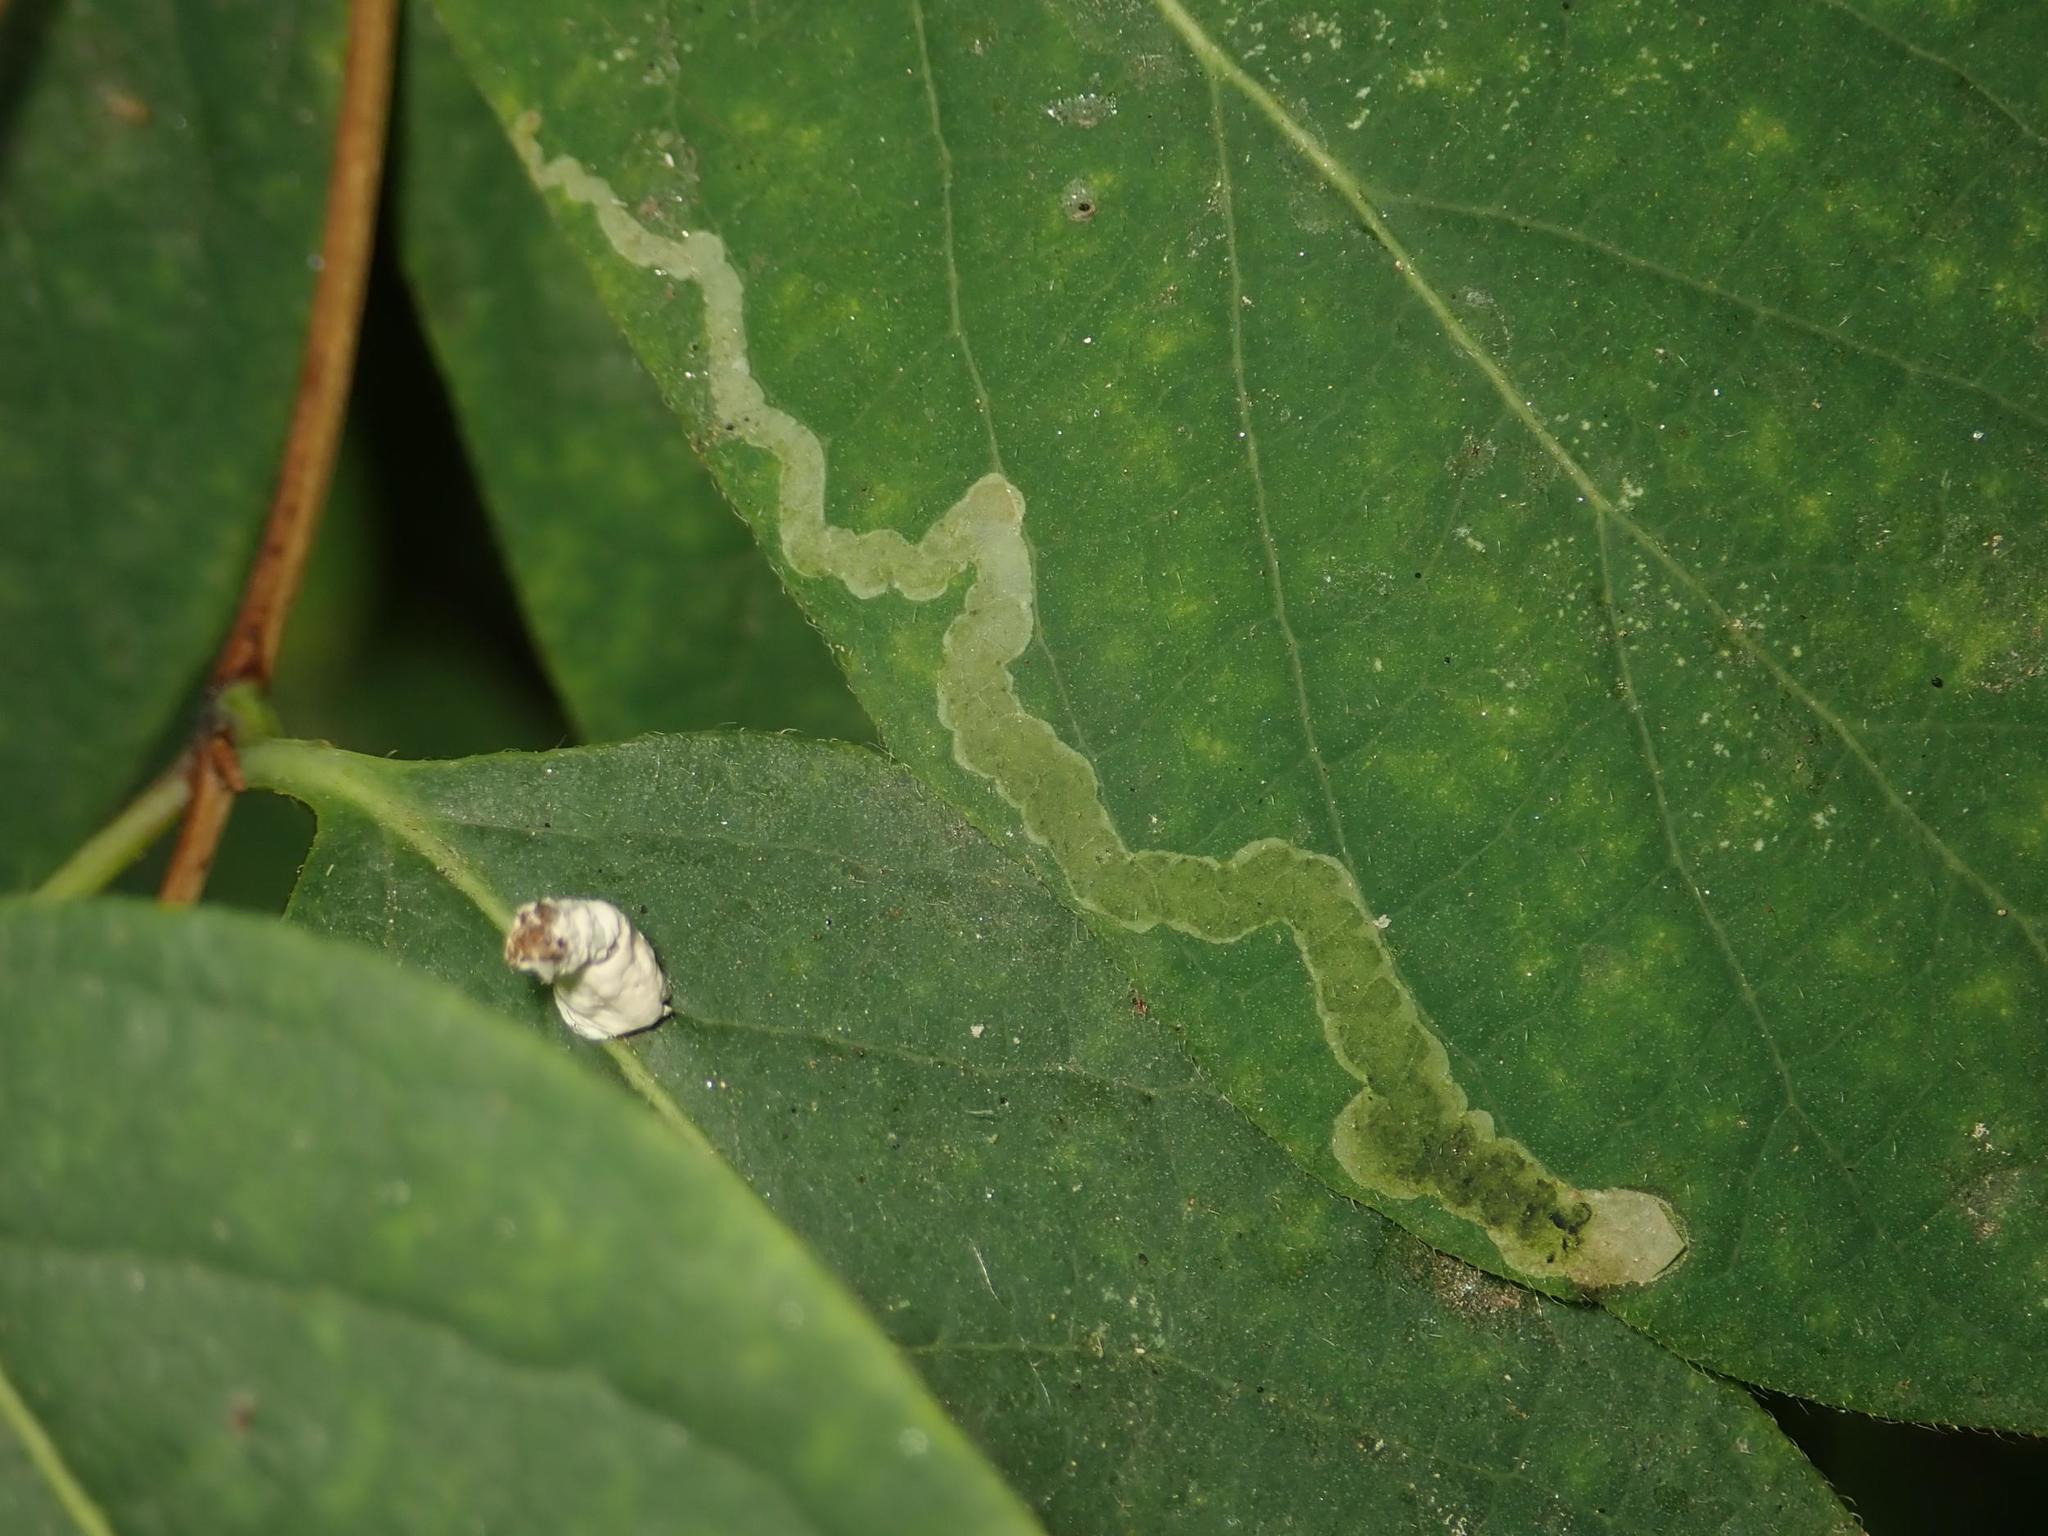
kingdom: Animalia
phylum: Arthropoda
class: Insecta
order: Diptera
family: Agromyzidae
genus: Aulagromyza
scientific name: Aulagromyza luteoscutellata
